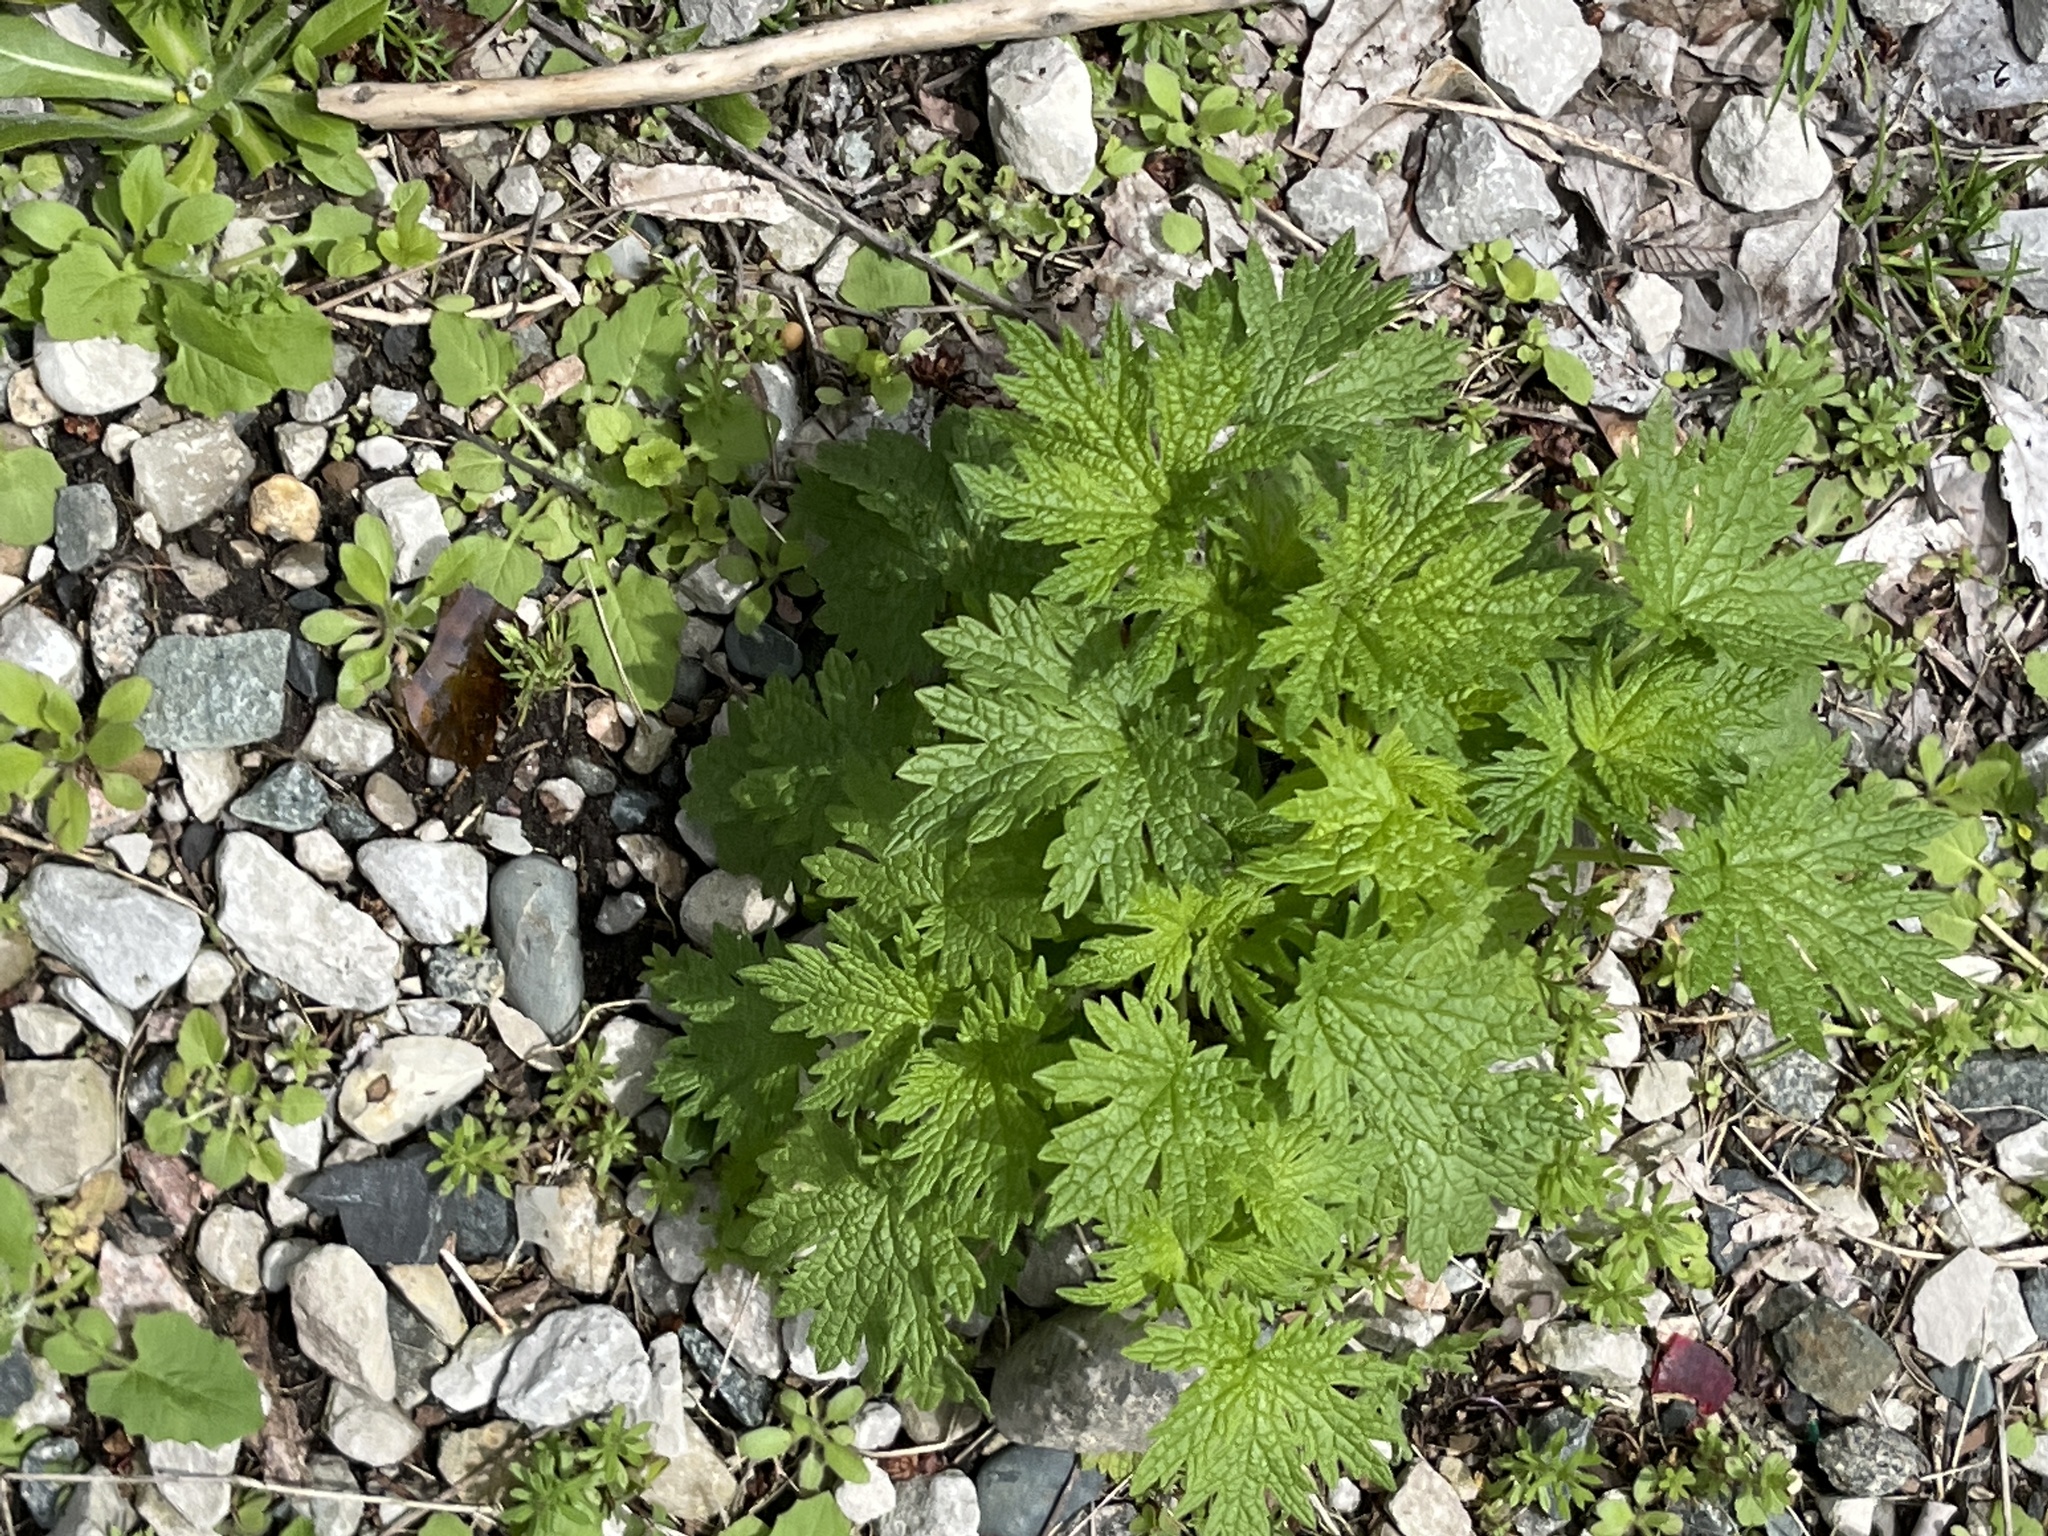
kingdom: Plantae
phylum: Tracheophyta
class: Magnoliopsida
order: Lamiales
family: Lamiaceae
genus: Leonurus
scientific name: Leonurus cardiaca
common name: Motherwort
